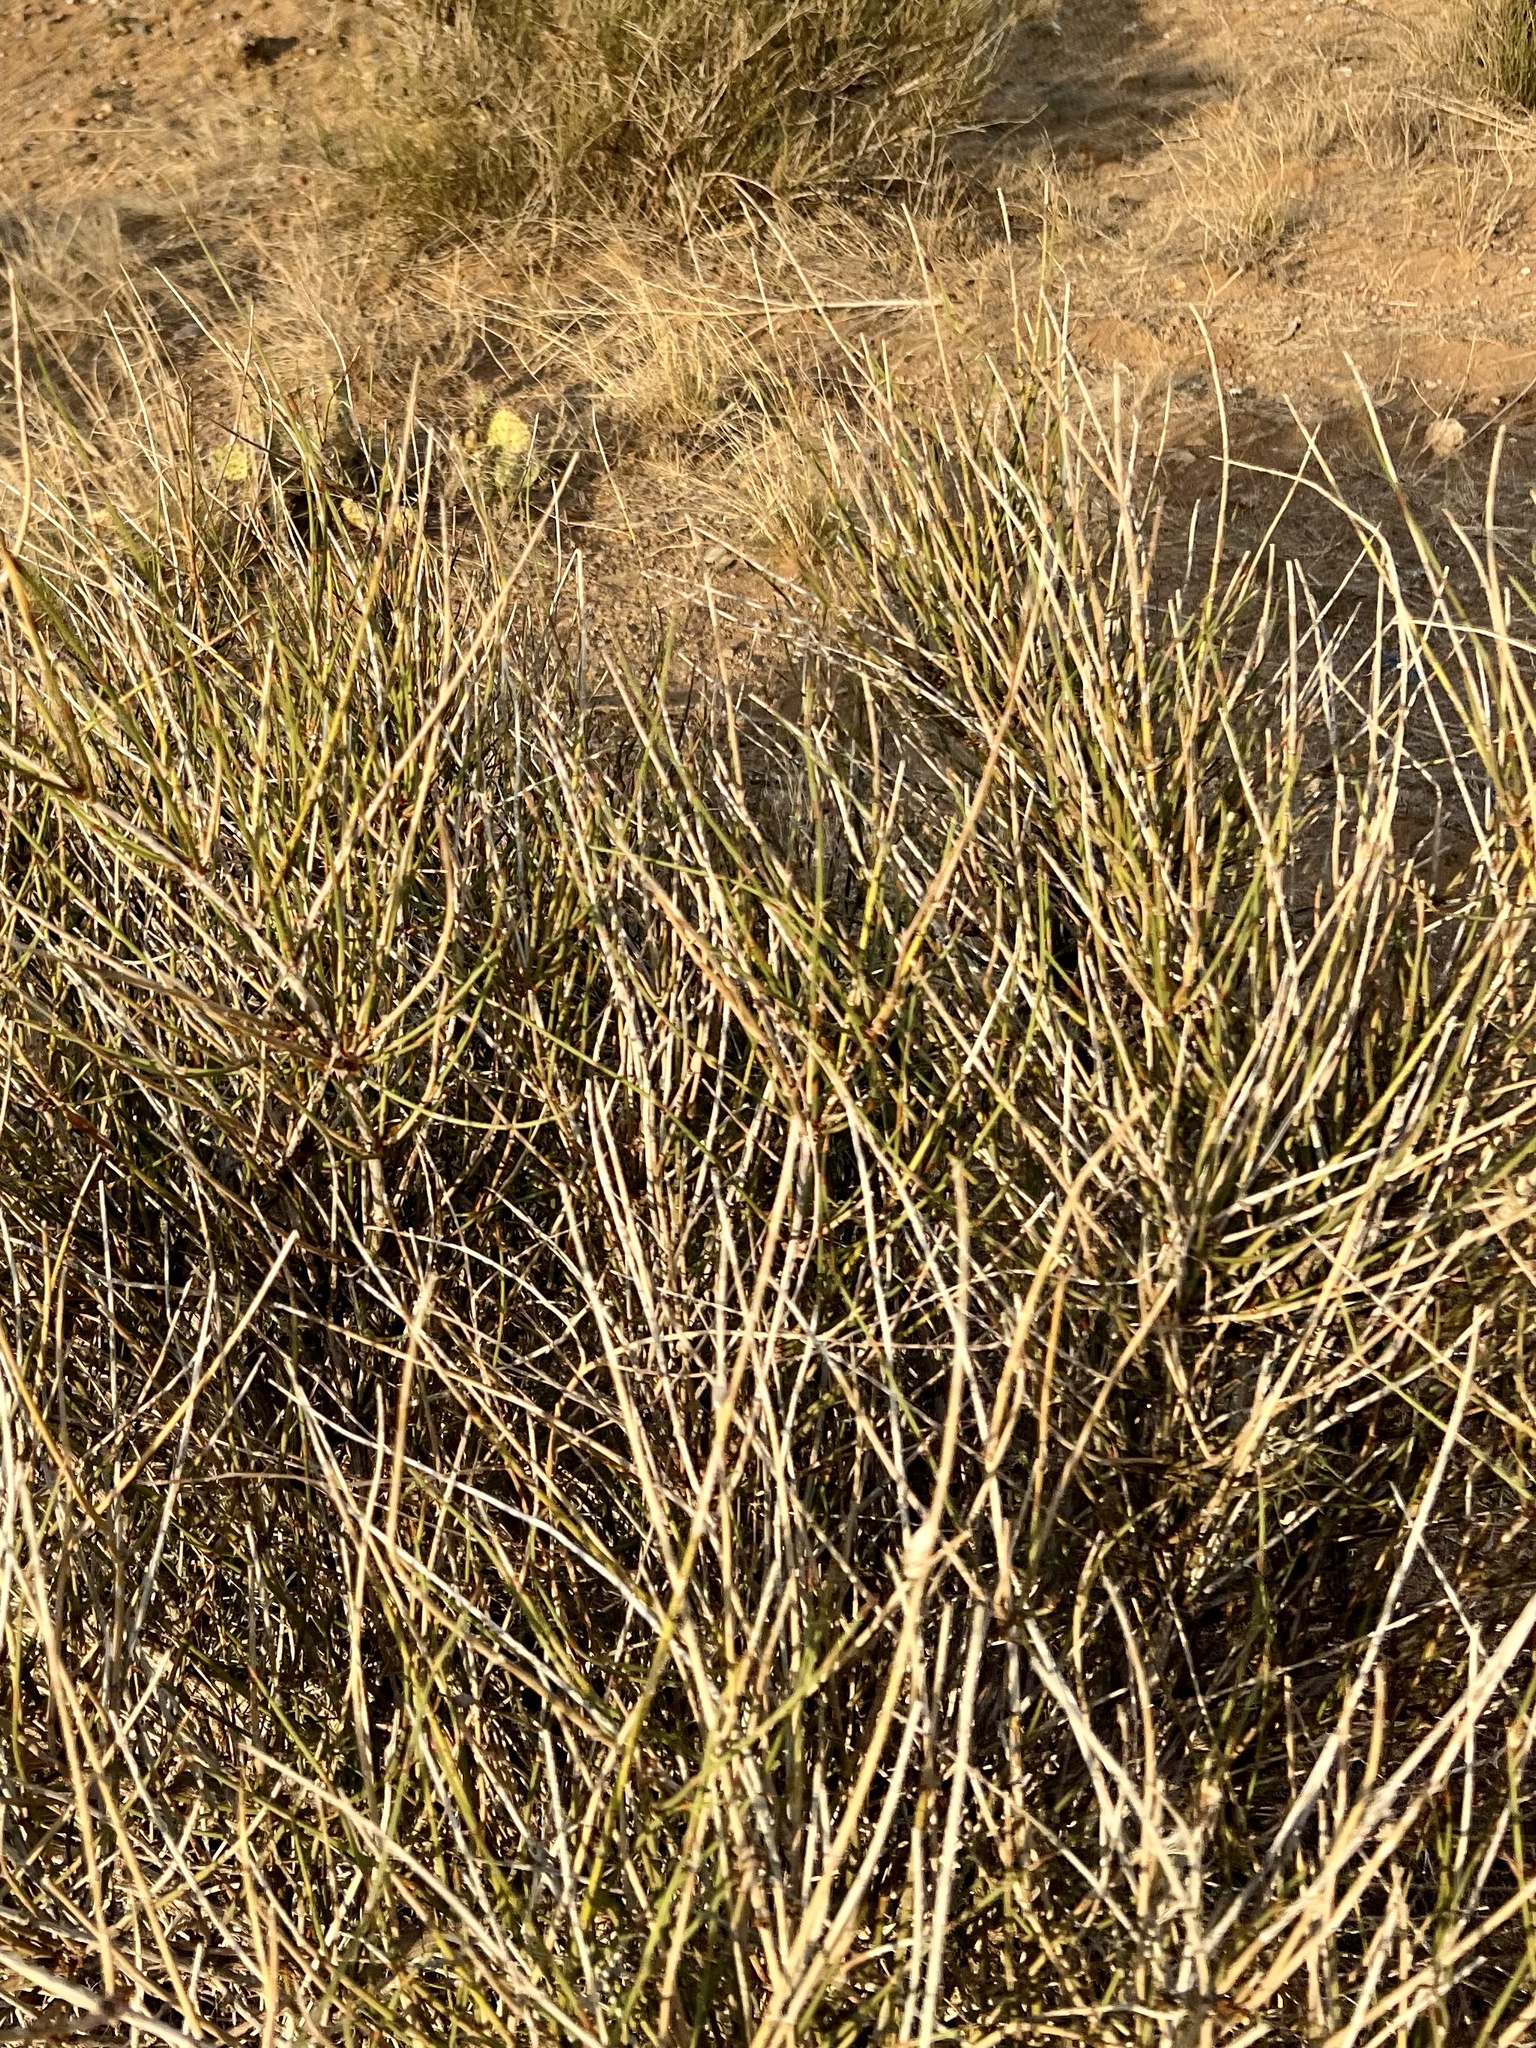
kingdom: Plantae
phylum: Tracheophyta
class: Gnetopsida
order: Ephedrales
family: Ephedraceae
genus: Ephedra
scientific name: Ephedra trifurca
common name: Mexican-tea
